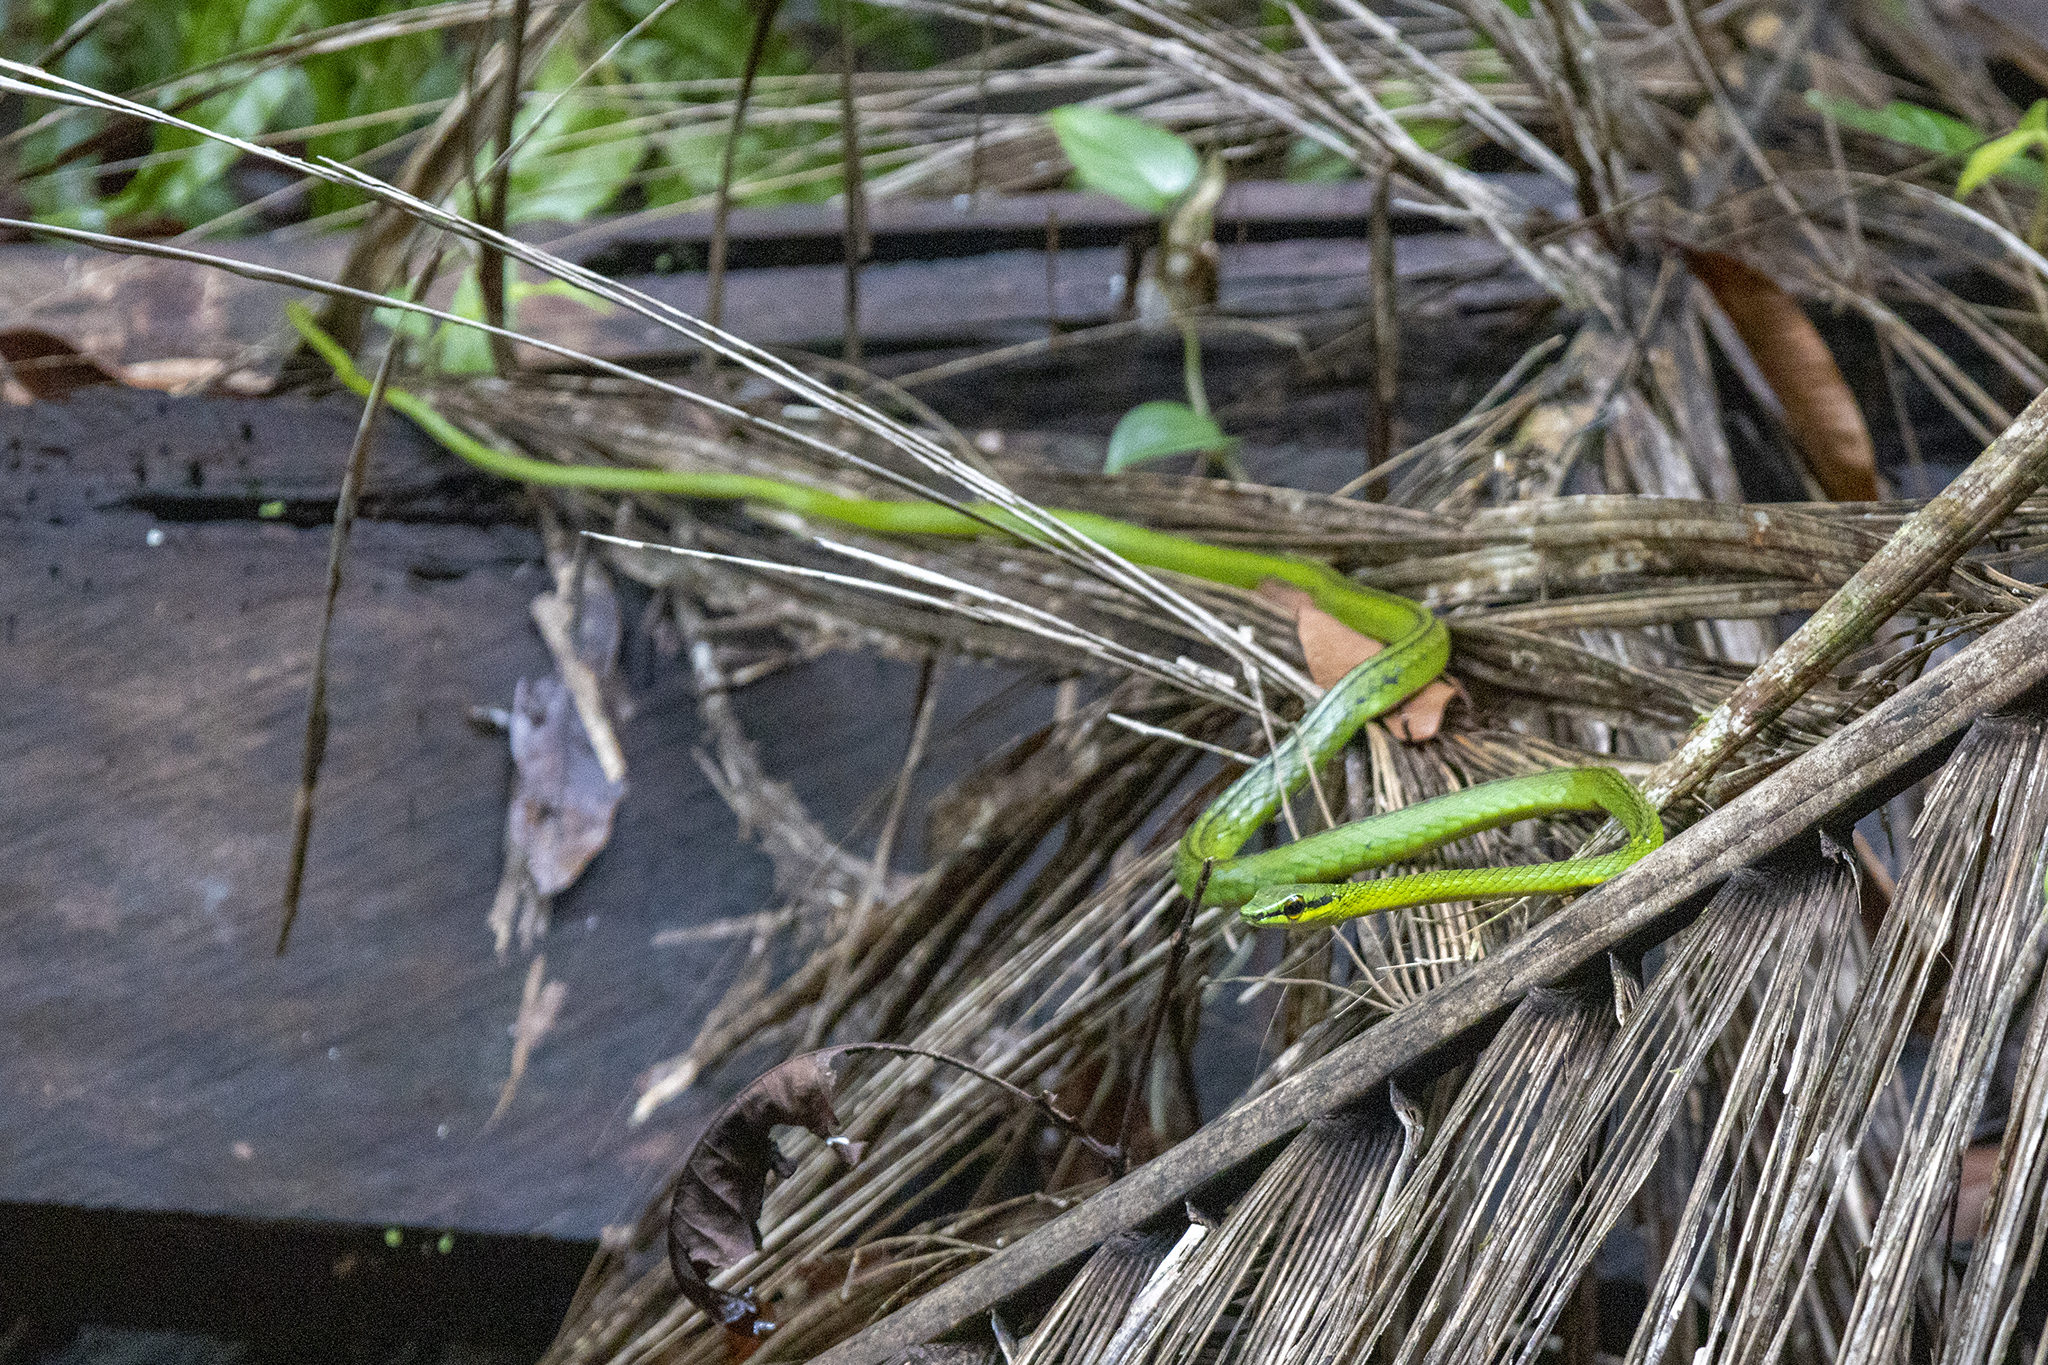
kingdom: Animalia
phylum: Chordata
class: Squamata
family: Colubridae
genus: Leptophis
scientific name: Leptophis depressirostris
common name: Cope's parrot snake
